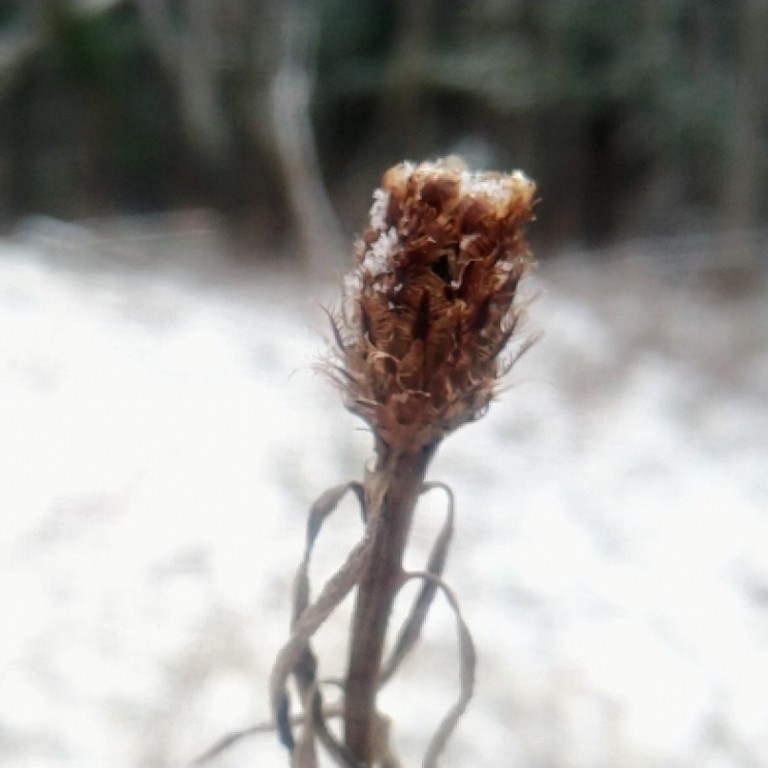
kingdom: Plantae
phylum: Tracheophyta
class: Magnoliopsida
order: Asterales
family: Asteraceae
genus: Centaurea
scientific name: Centaurea nigra
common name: Lesser knapweed
